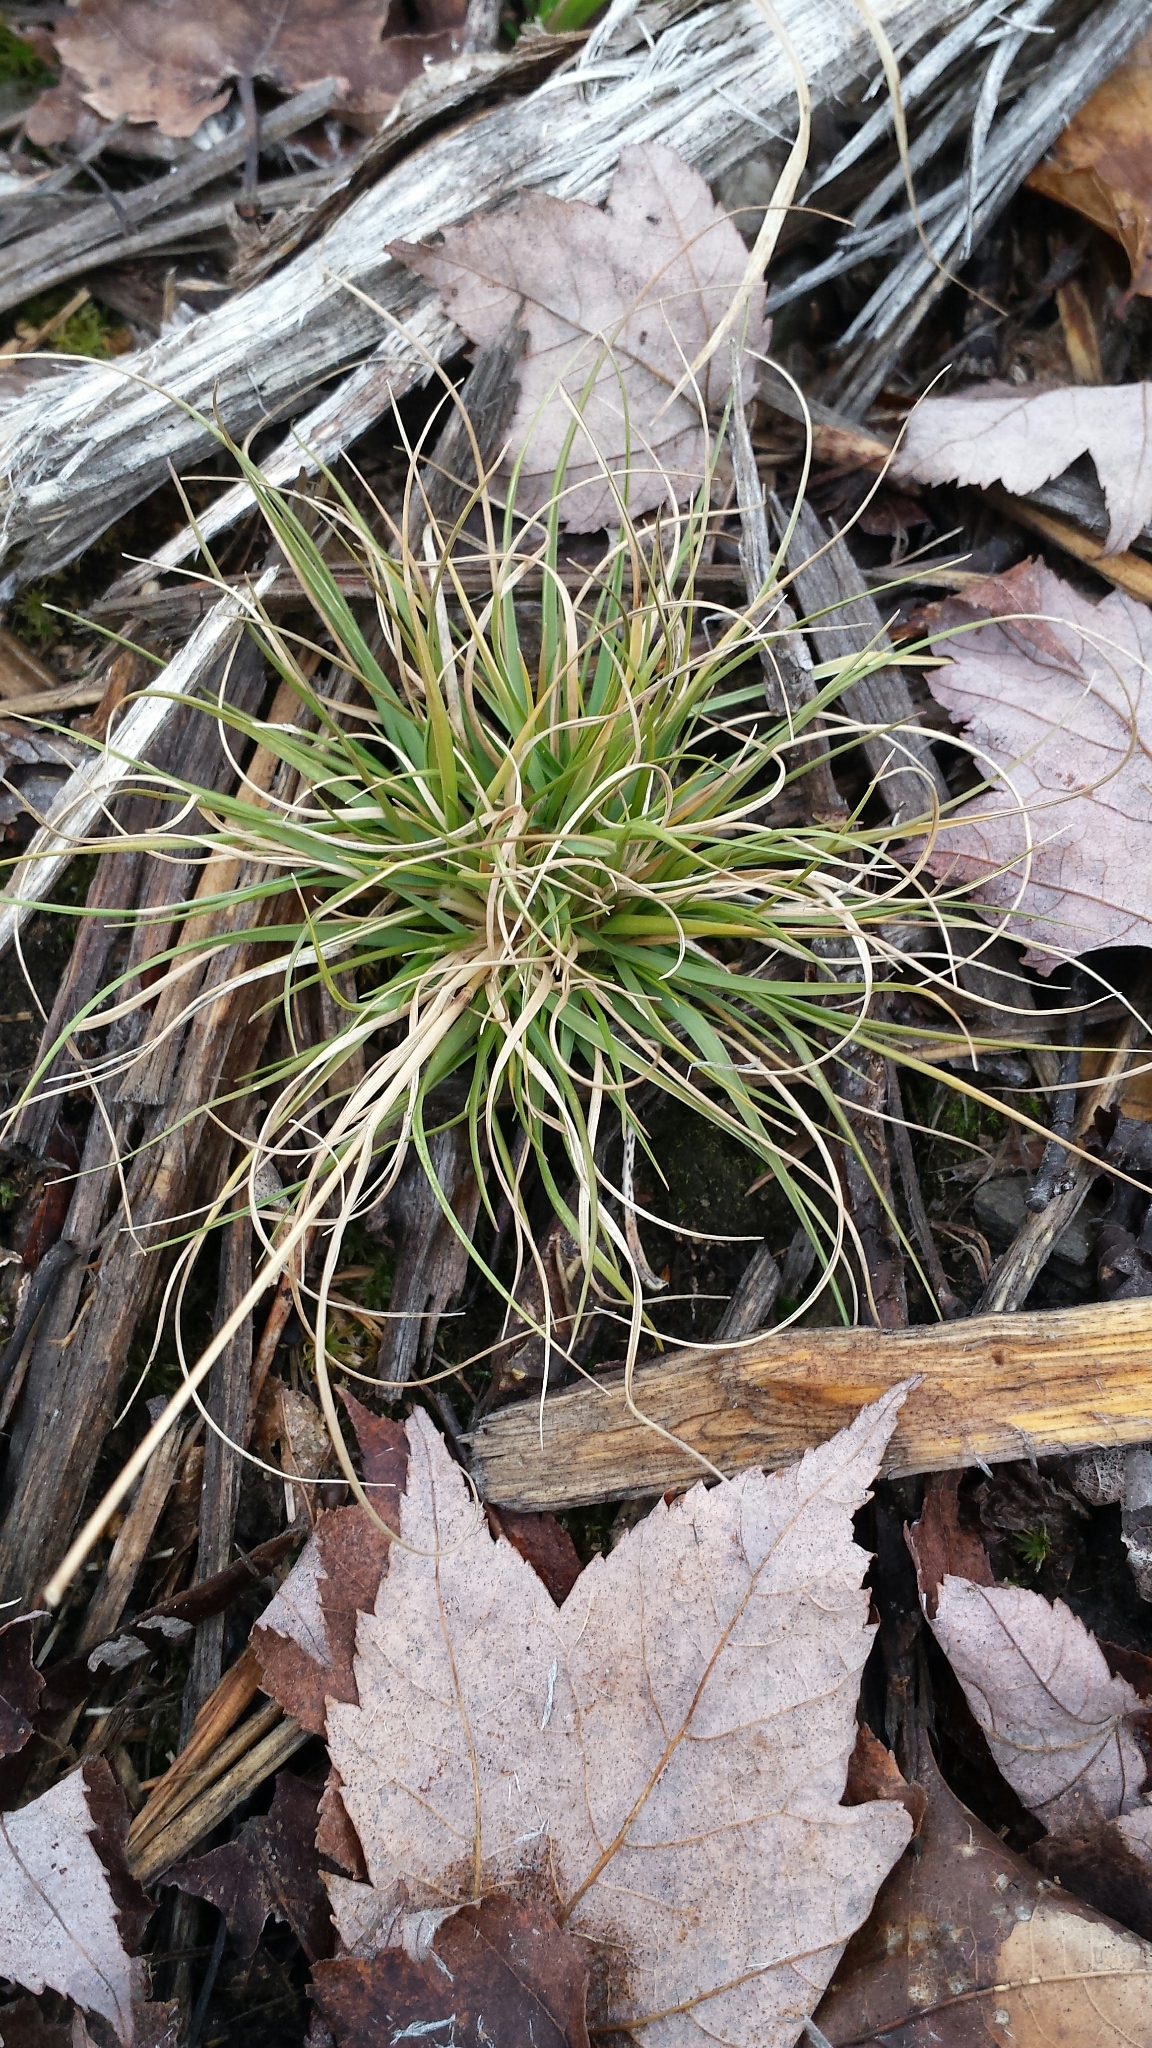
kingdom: Plantae
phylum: Tracheophyta
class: Liliopsida
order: Poales
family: Poaceae
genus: Danthonia
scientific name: Danthonia spicata
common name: Common wild oatgrass
